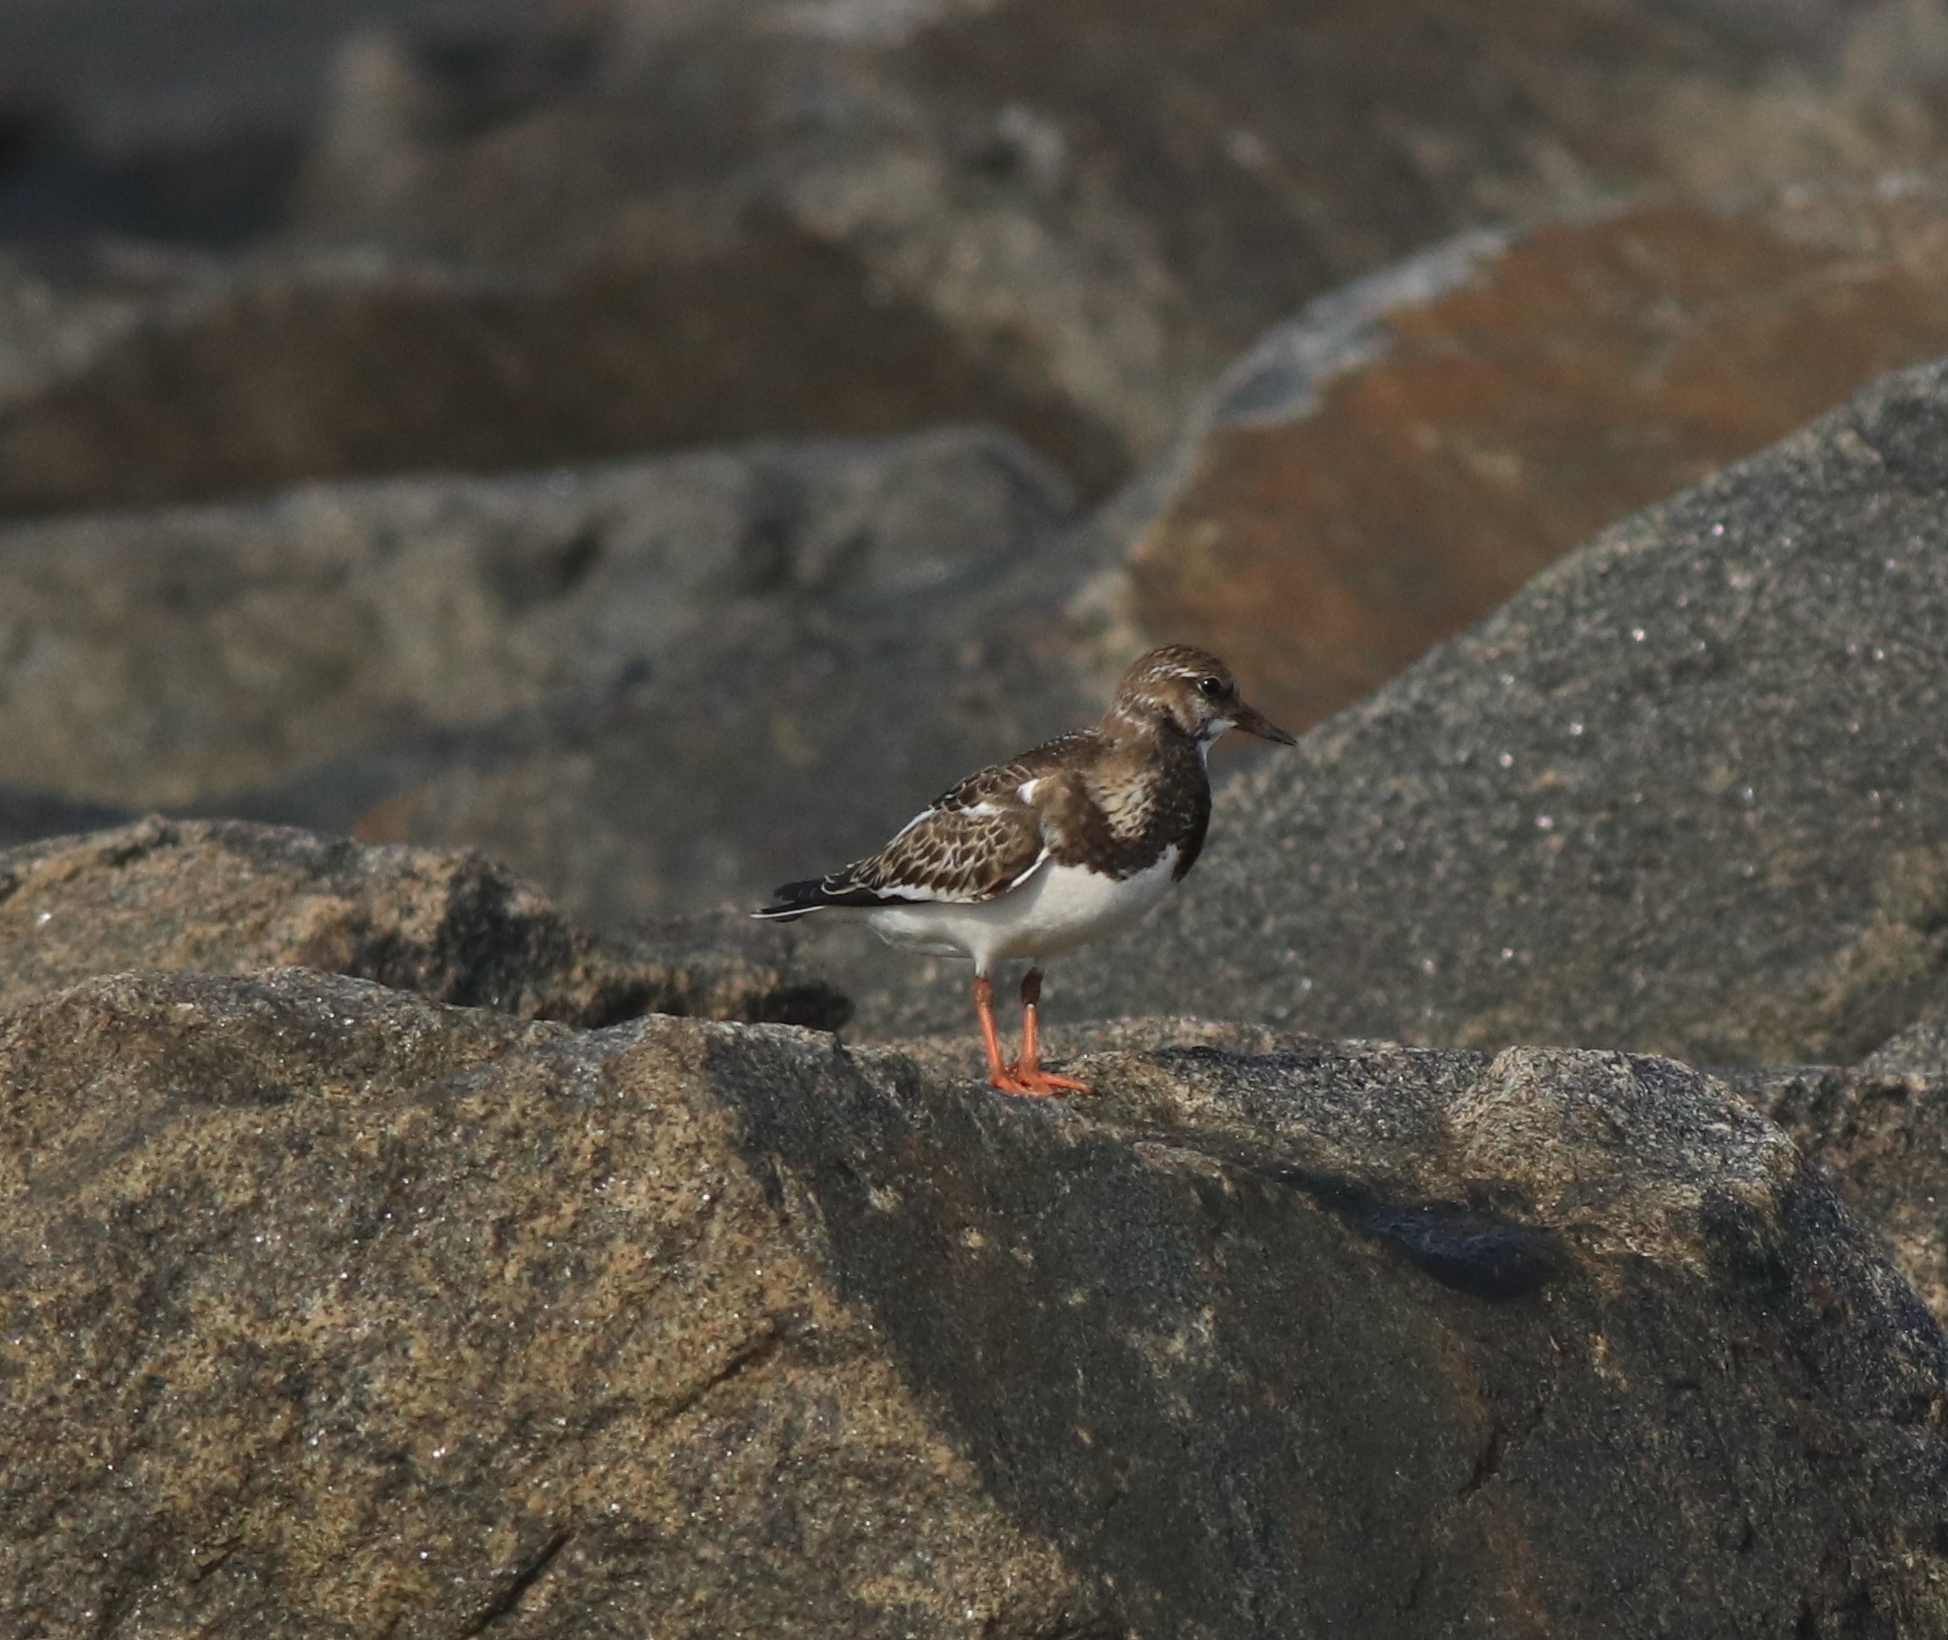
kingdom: Animalia
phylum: Chordata
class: Aves
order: Charadriiformes
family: Scolopacidae
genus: Arenaria
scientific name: Arenaria interpres
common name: Ruddy turnstone
